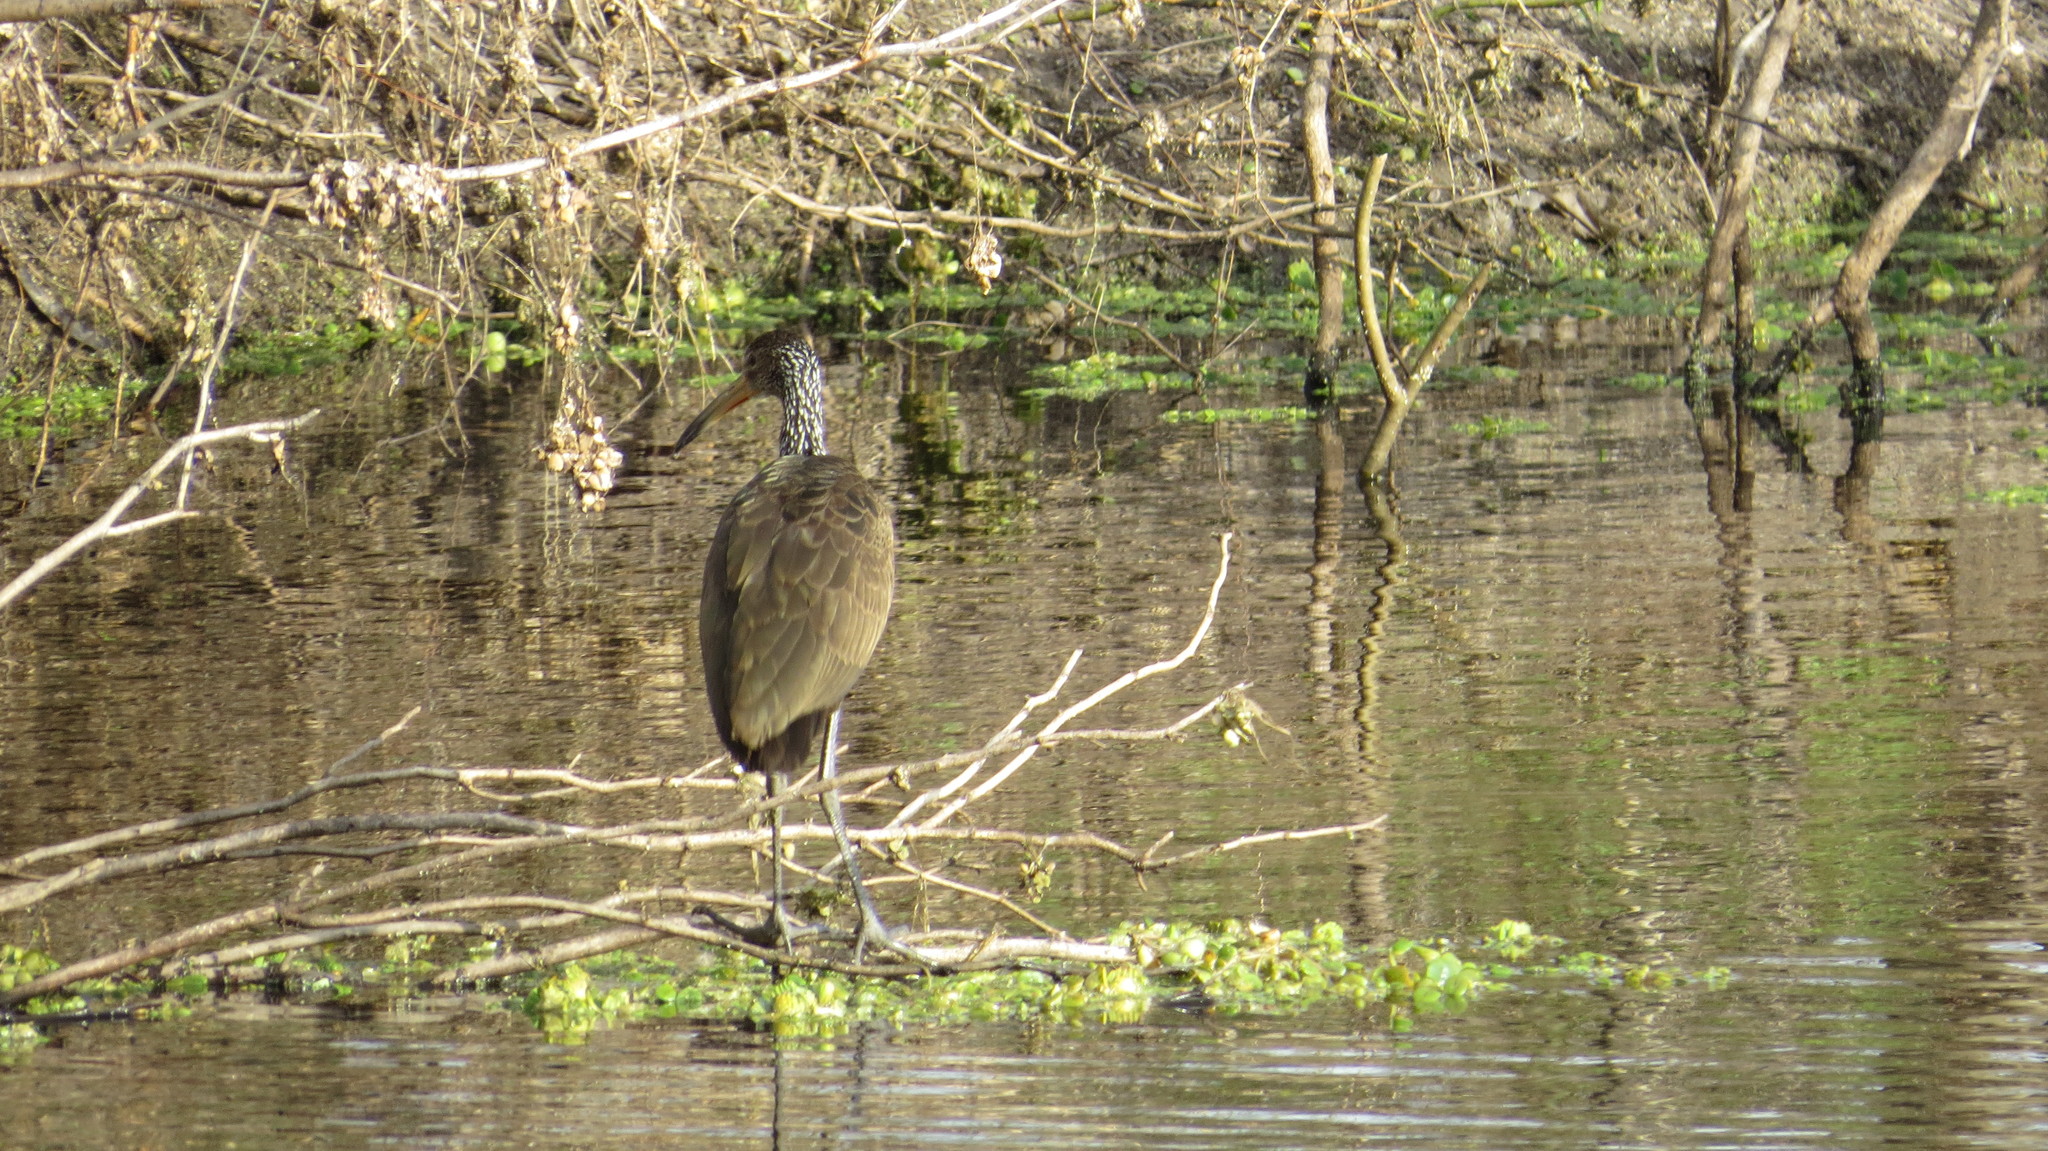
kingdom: Animalia
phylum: Chordata
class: Aves
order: Gruiformes
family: Aramidae
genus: Aramus
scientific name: Aramus guarauna
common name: Limpkin
